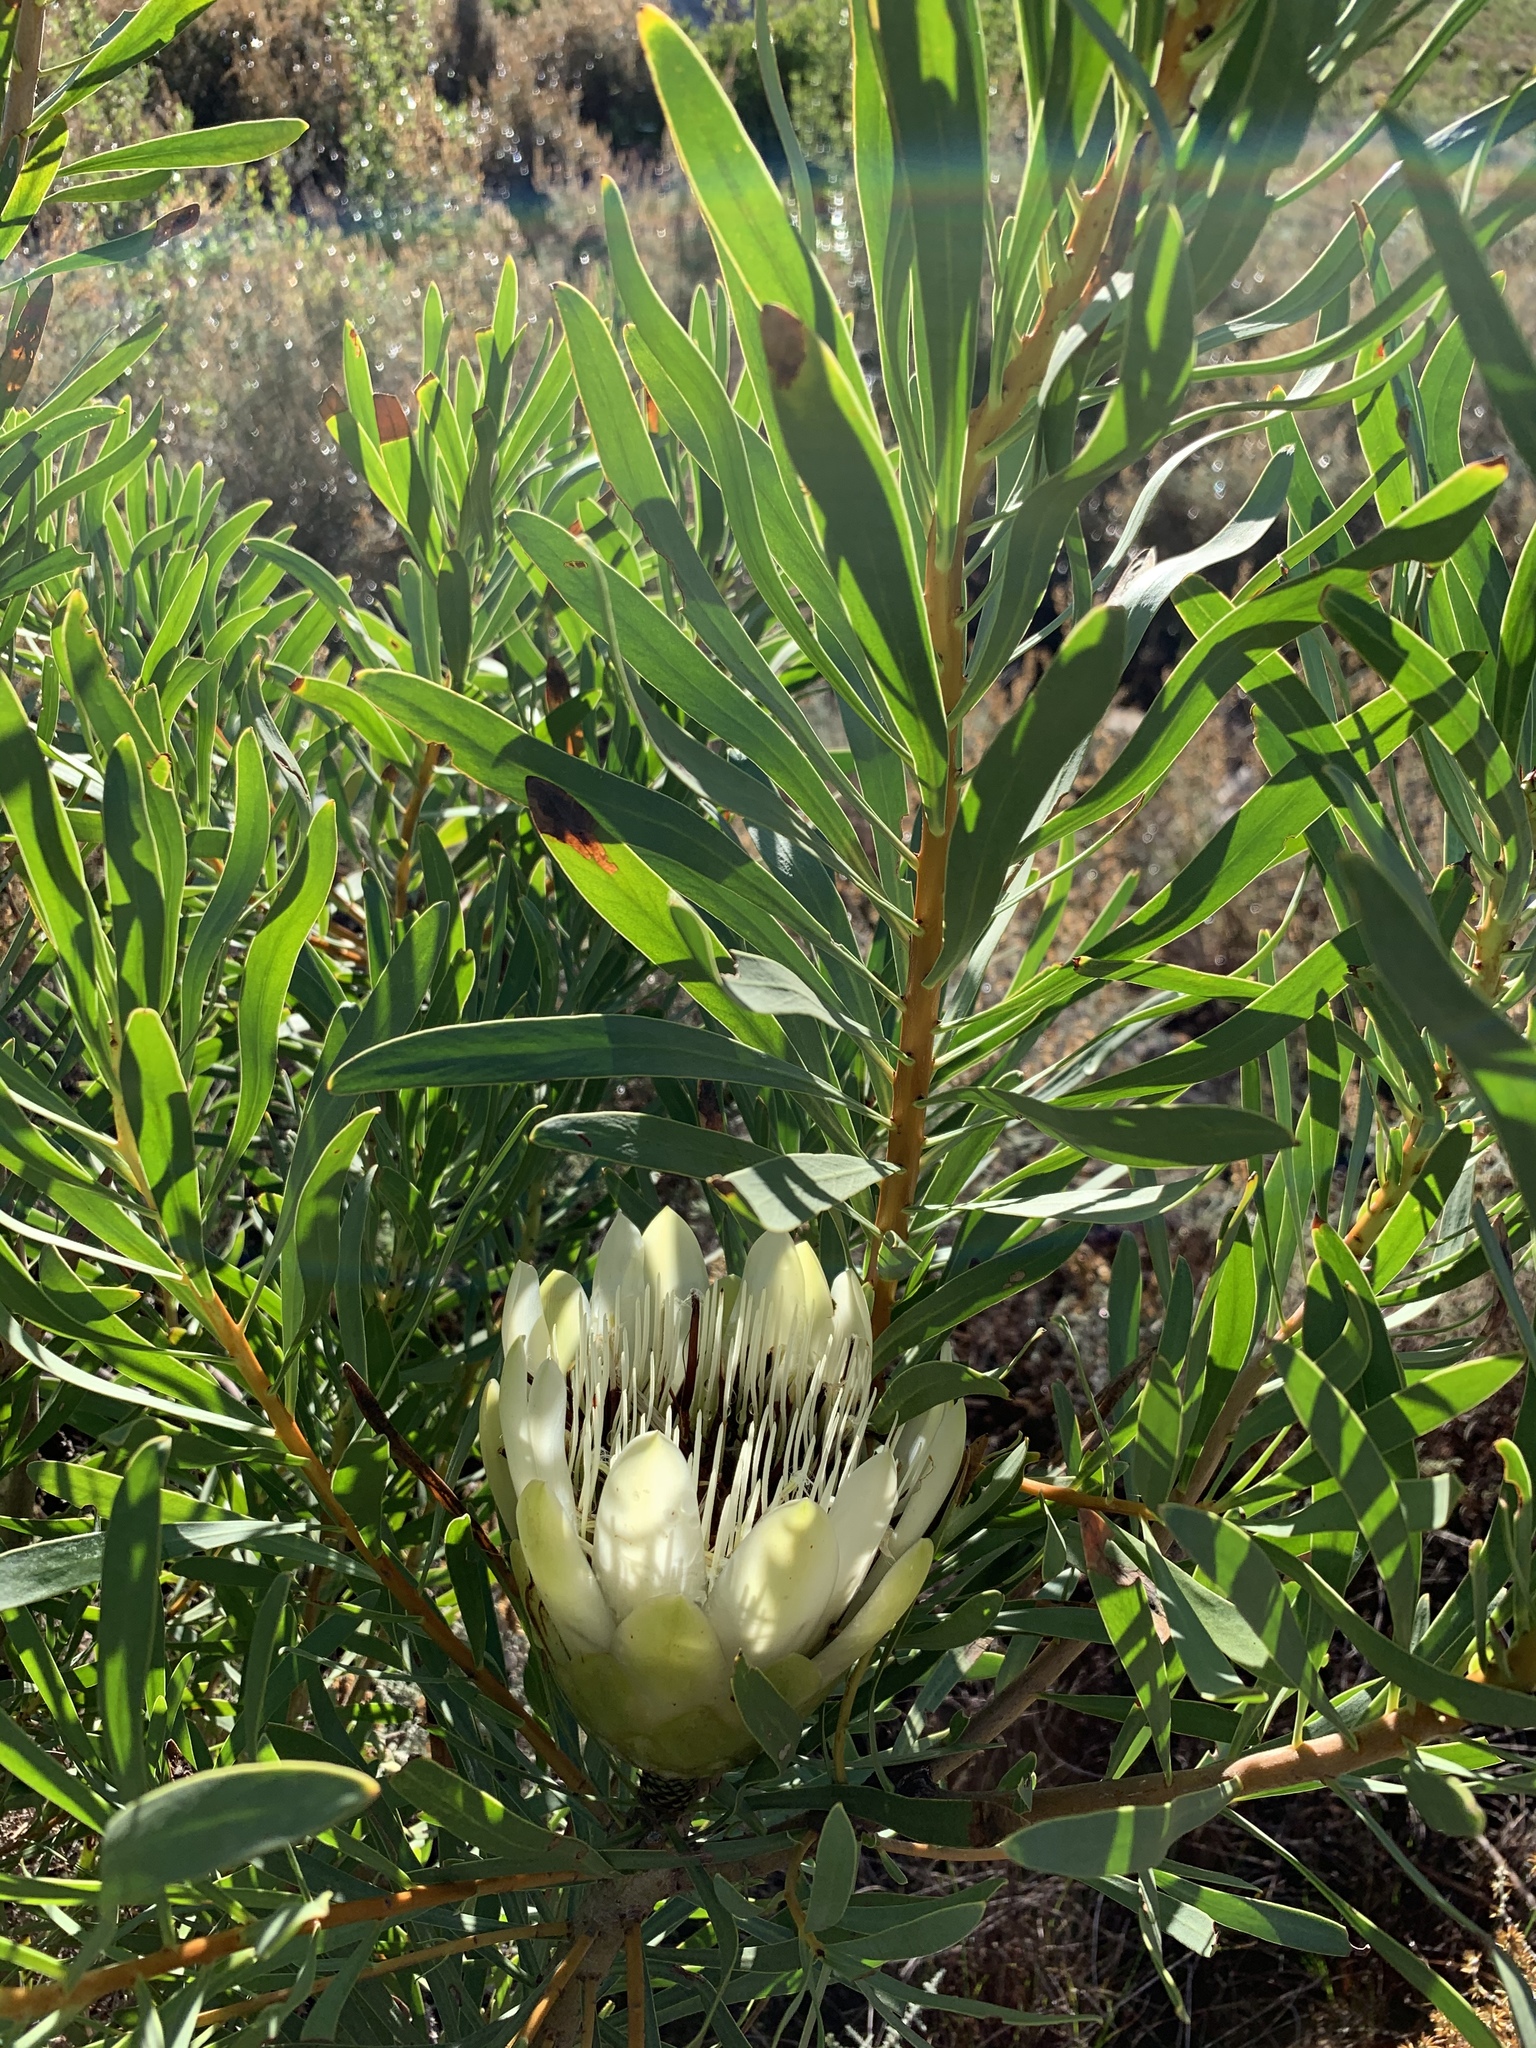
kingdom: Plantae
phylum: Tracheophyta
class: Magnoliopsida
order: Proteales
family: Proteaceae
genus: Protea
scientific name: Protea repens
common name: Sugarbush
